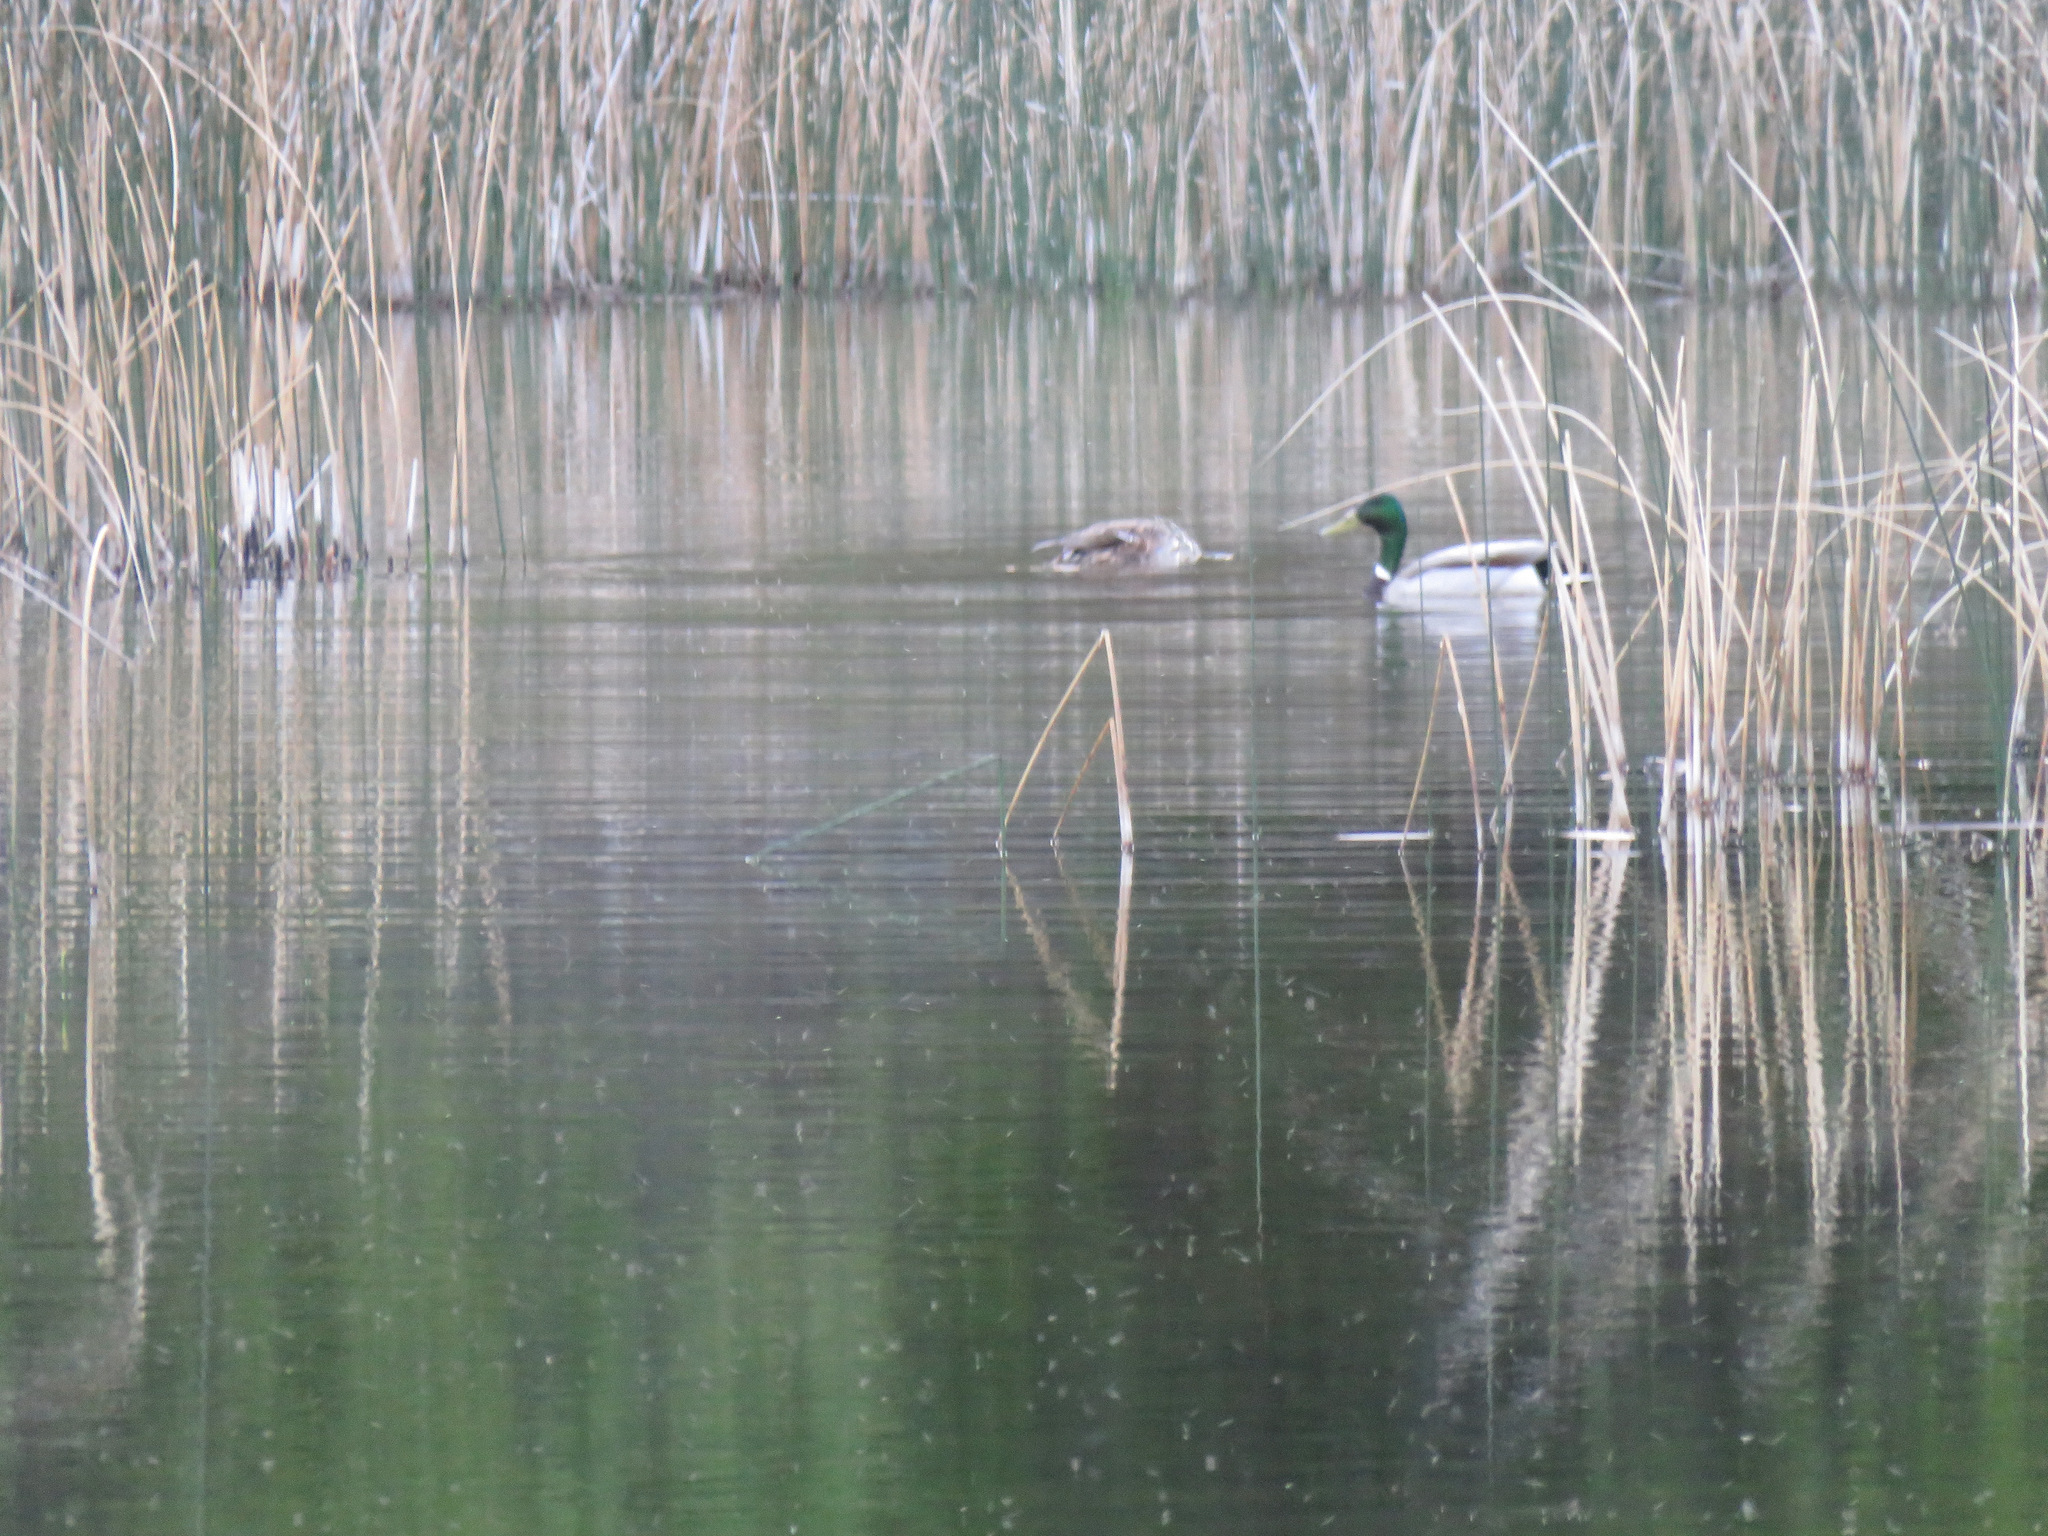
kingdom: Animalia
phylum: Chordata
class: Aves
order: Anseriformes
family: Anatidae
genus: Anas
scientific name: Anas platyrhynchos
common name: Mallard
